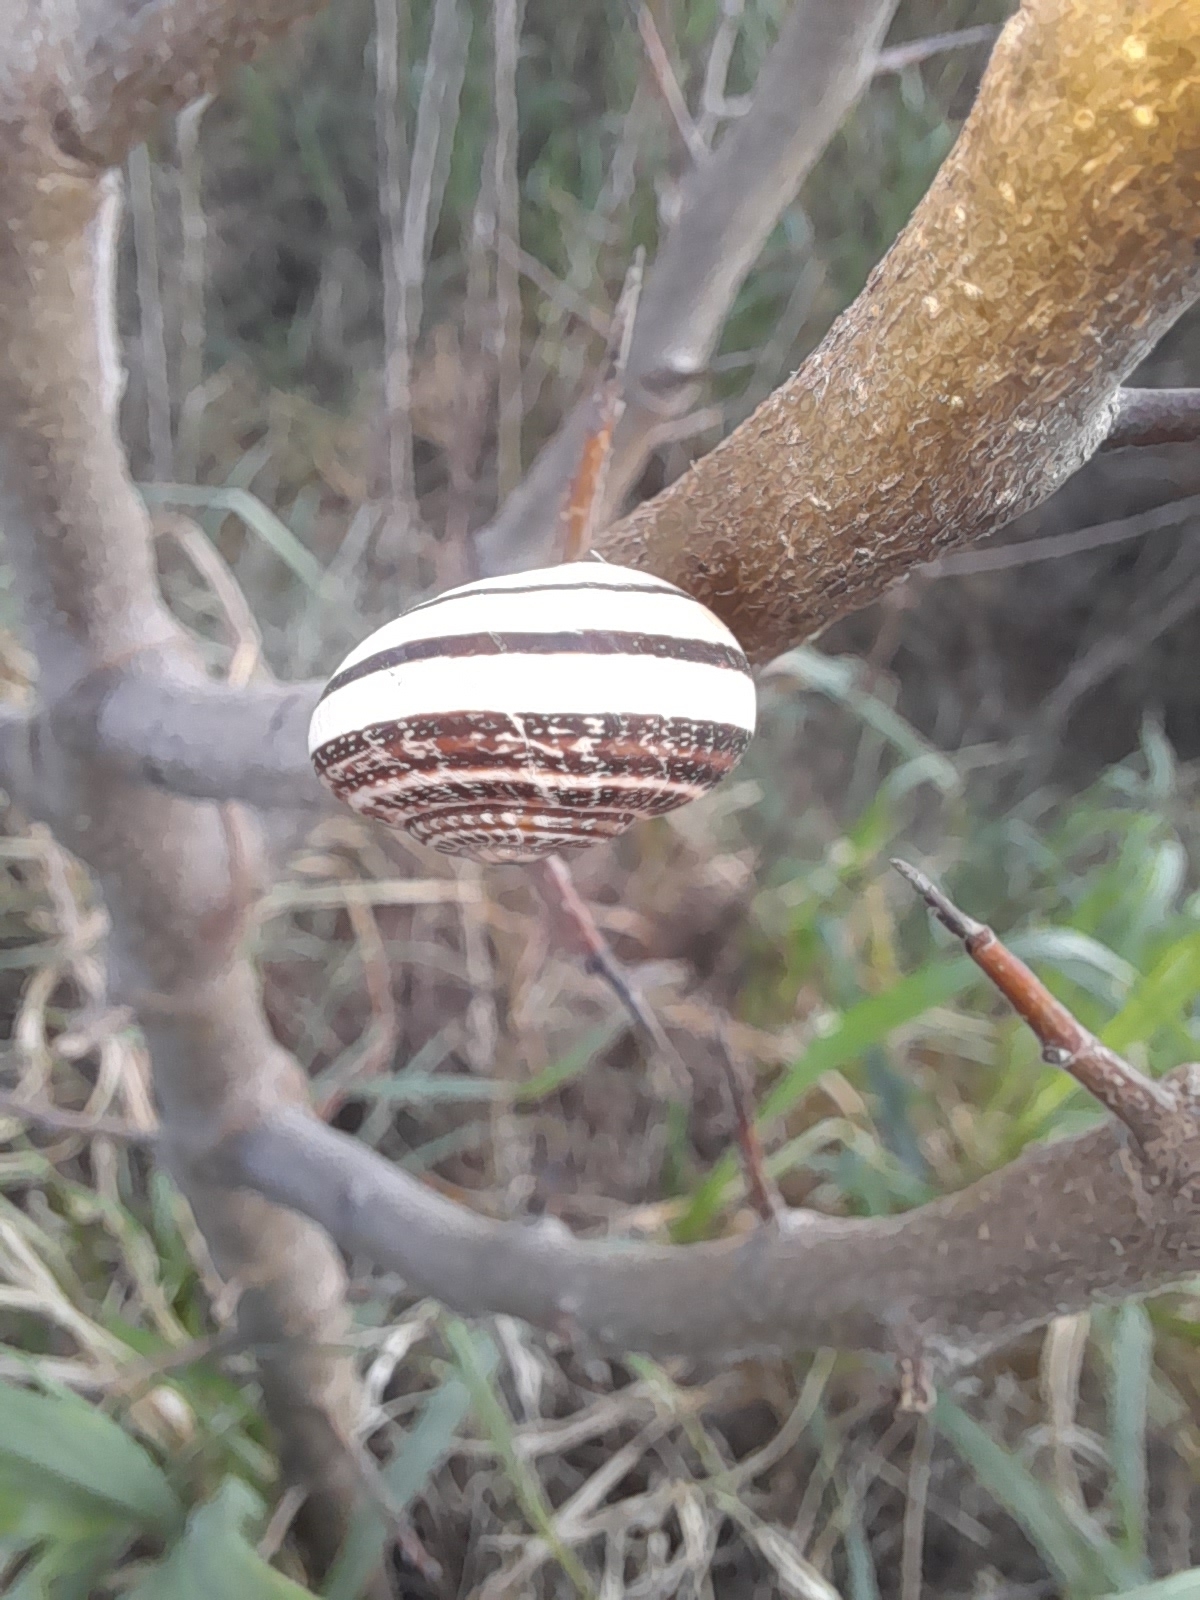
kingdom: Animalia
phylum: Mollusca
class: Gastropoda
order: Stylommatophora
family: Helicidae
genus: Eobania
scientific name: Eobania vermiculata
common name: Chocolateband snail
